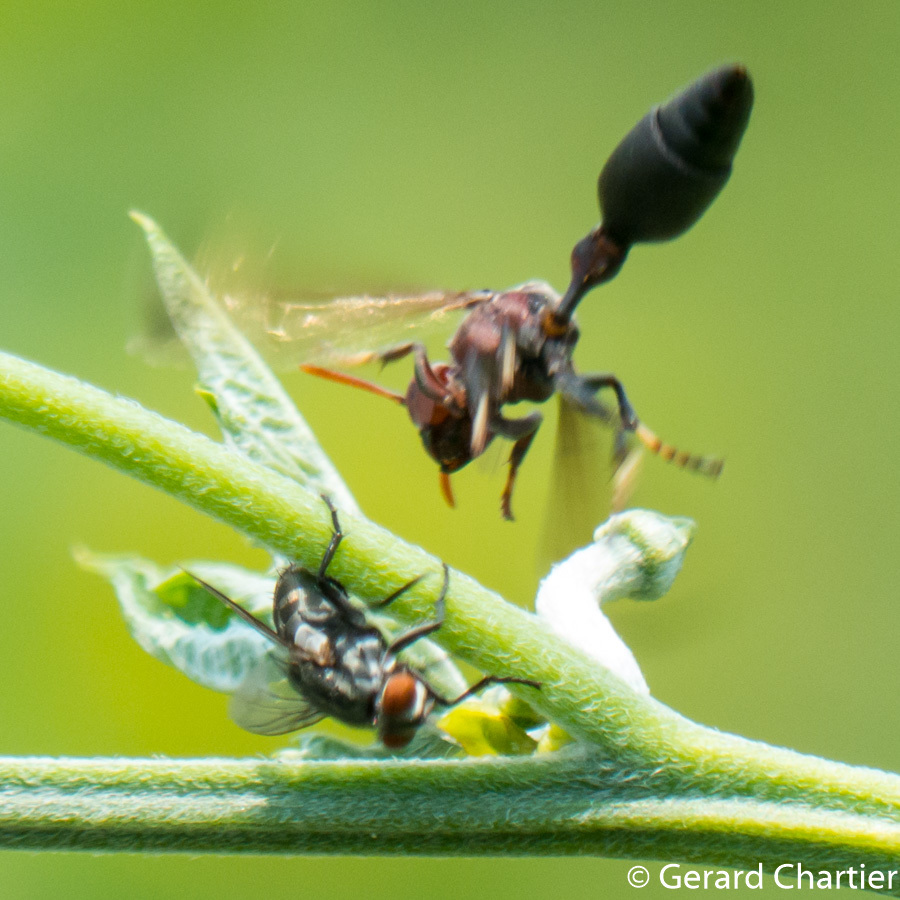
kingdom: Animalia
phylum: Arthropoda
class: Insecta
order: Hymenoptera
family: Vespidae
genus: Ropalidia
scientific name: Ropalidia magnanima
